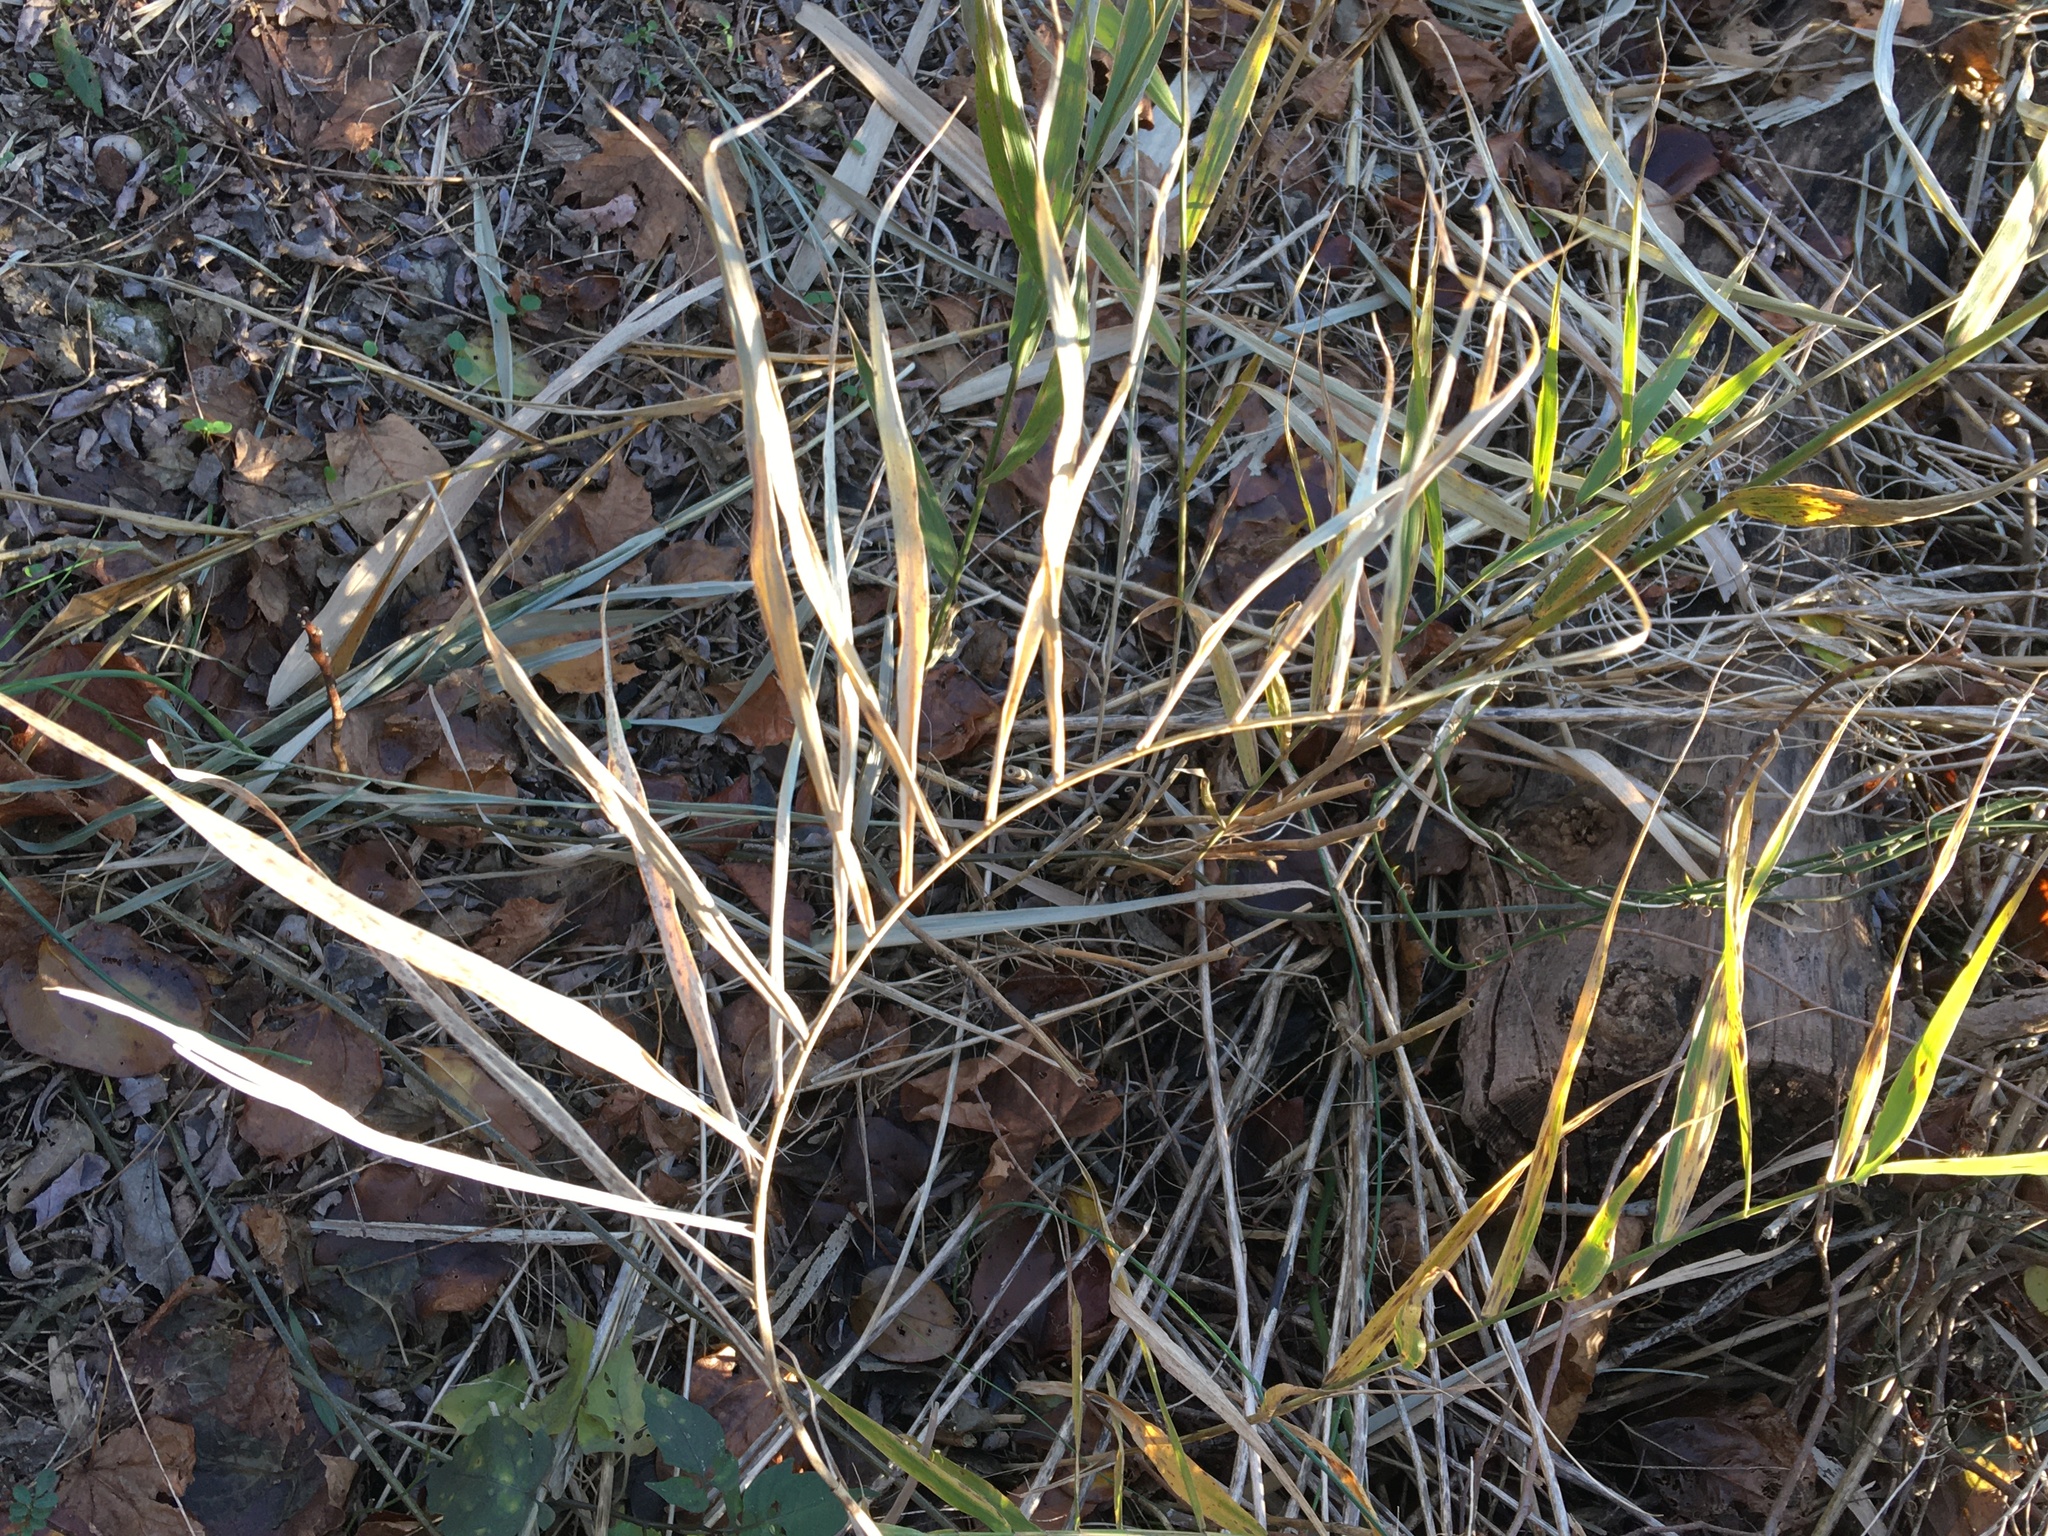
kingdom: Plantae
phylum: Tracheophyta
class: Liliopsida
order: Poales
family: Poaceae
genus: Phragmites
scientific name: Phragmites australis
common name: Common reed
